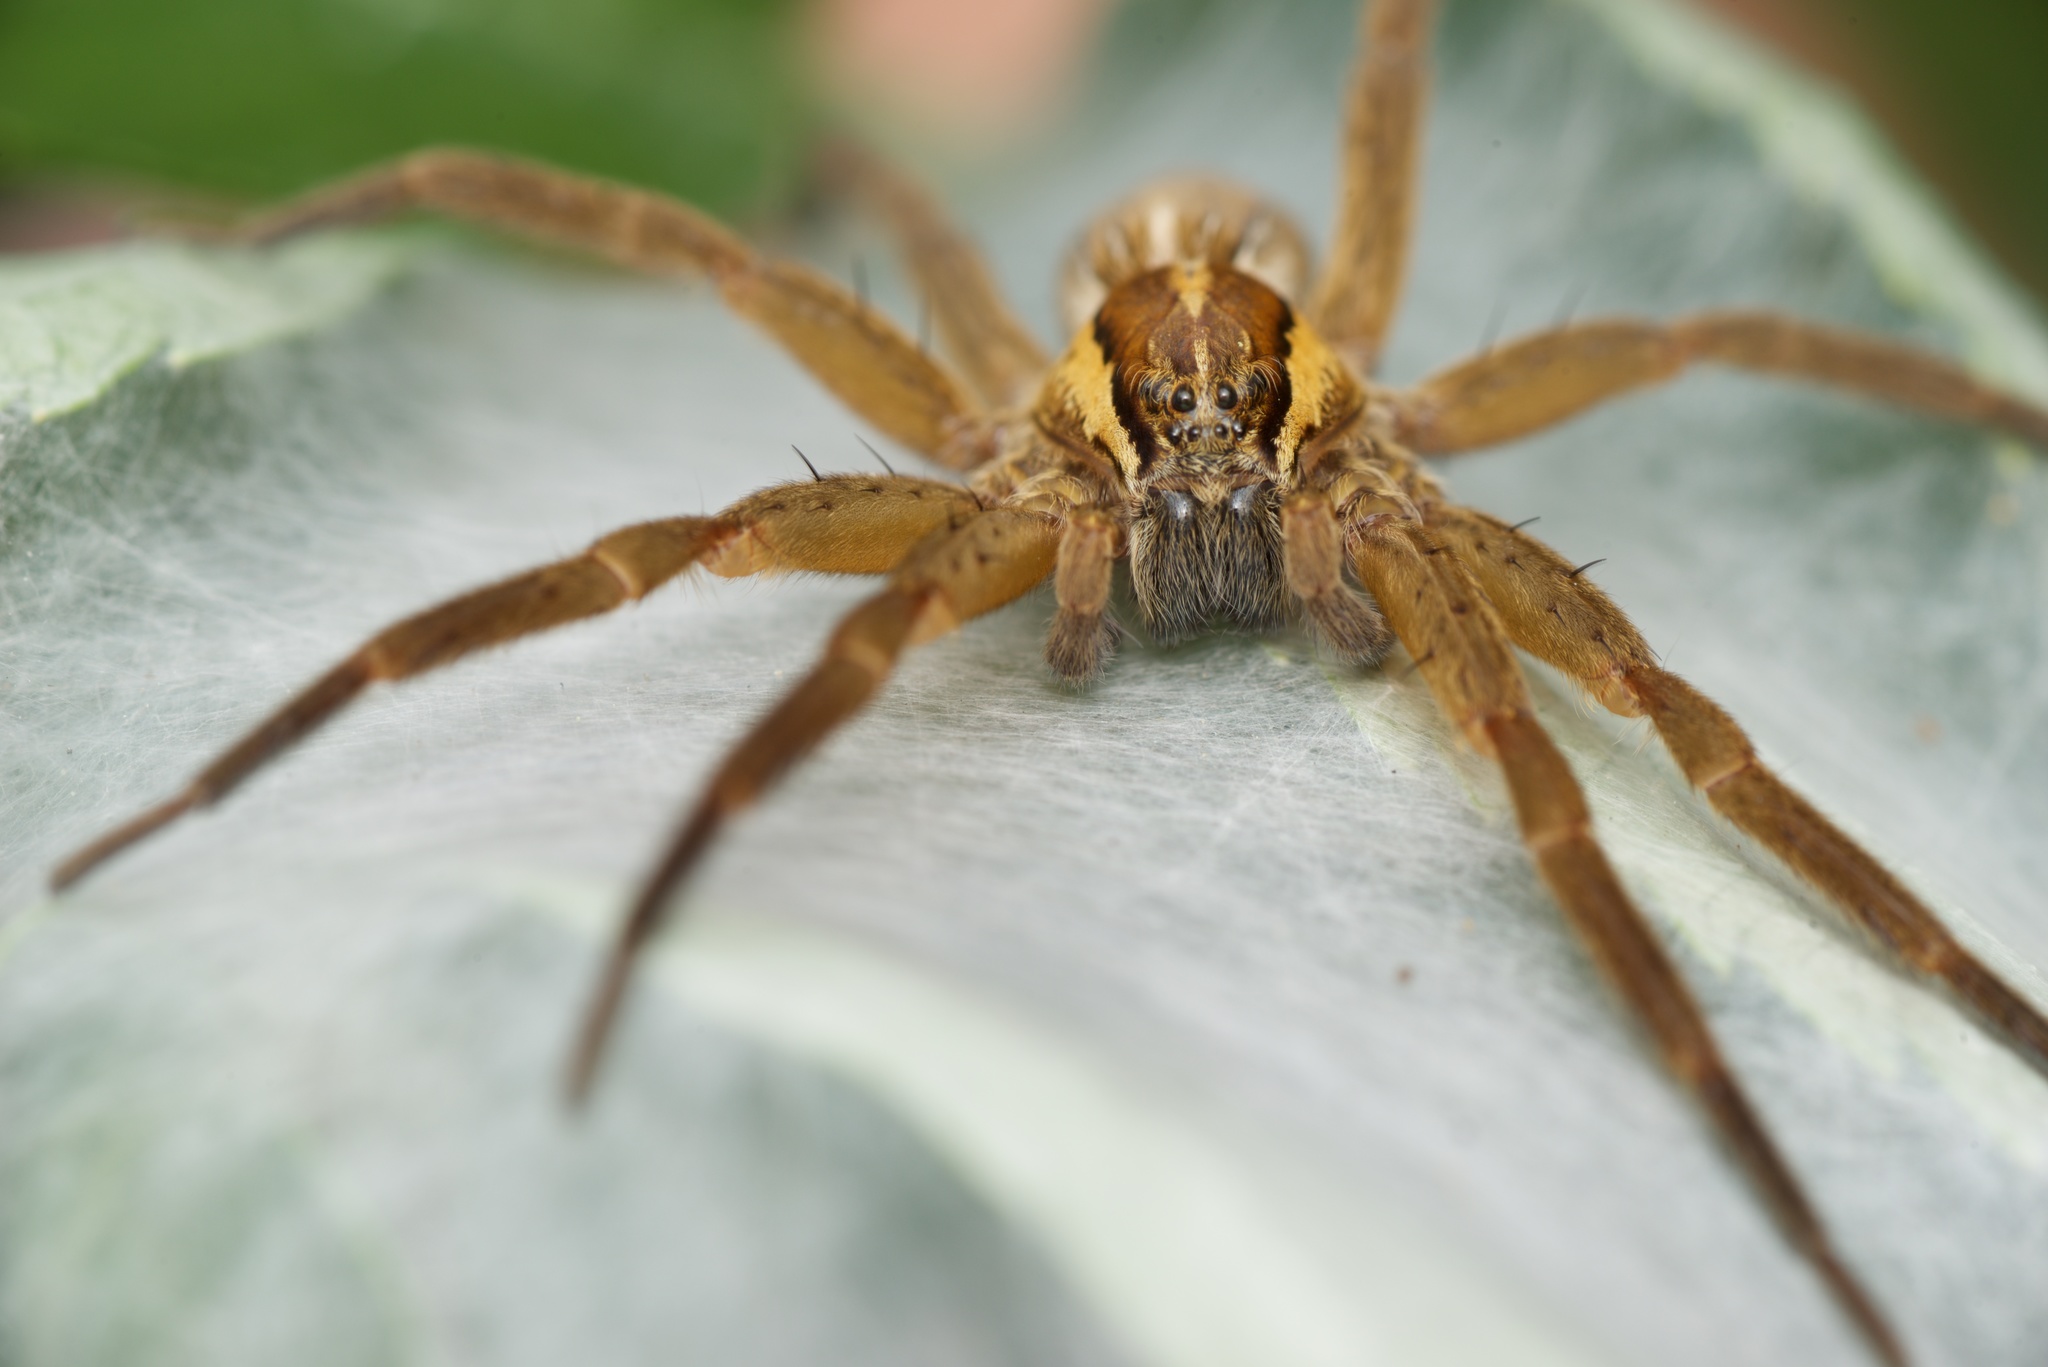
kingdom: Animalia
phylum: Arthropoda
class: Arachnida
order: Araneae
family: Pisauridae
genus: Dolomedes
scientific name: Dolomedes minor
